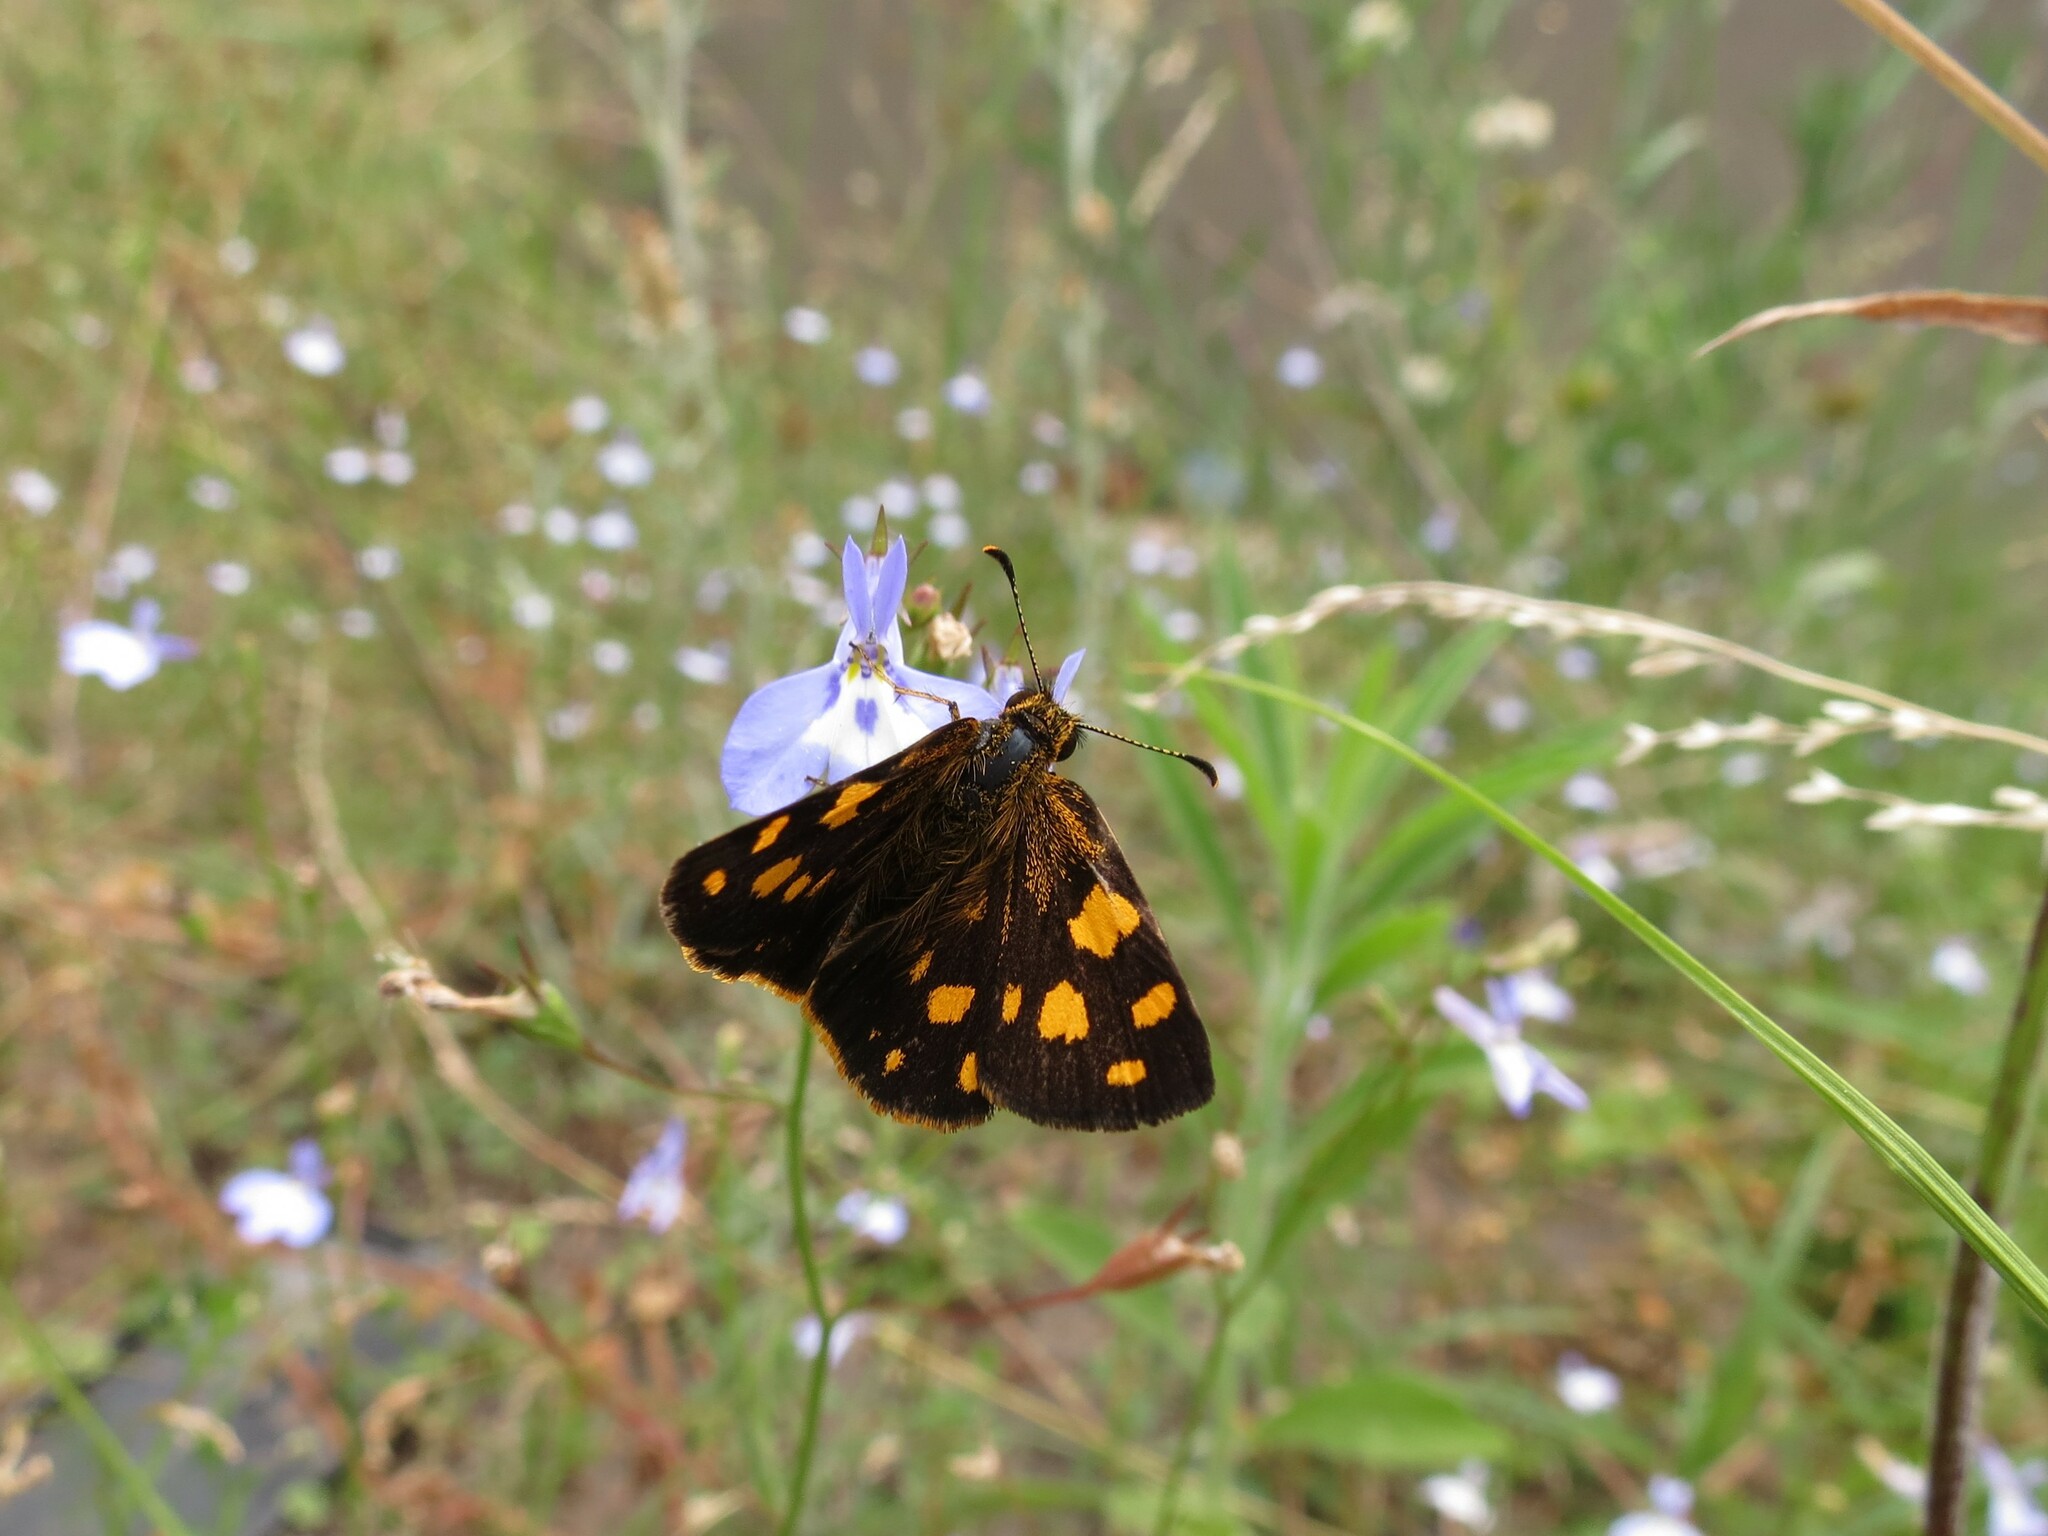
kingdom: Animalia
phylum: Arthropoda
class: Insecta
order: Lepidoptera
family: Hesperiidae
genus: Metisella
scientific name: Metisella metis
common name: Western gold-spotted sylph
